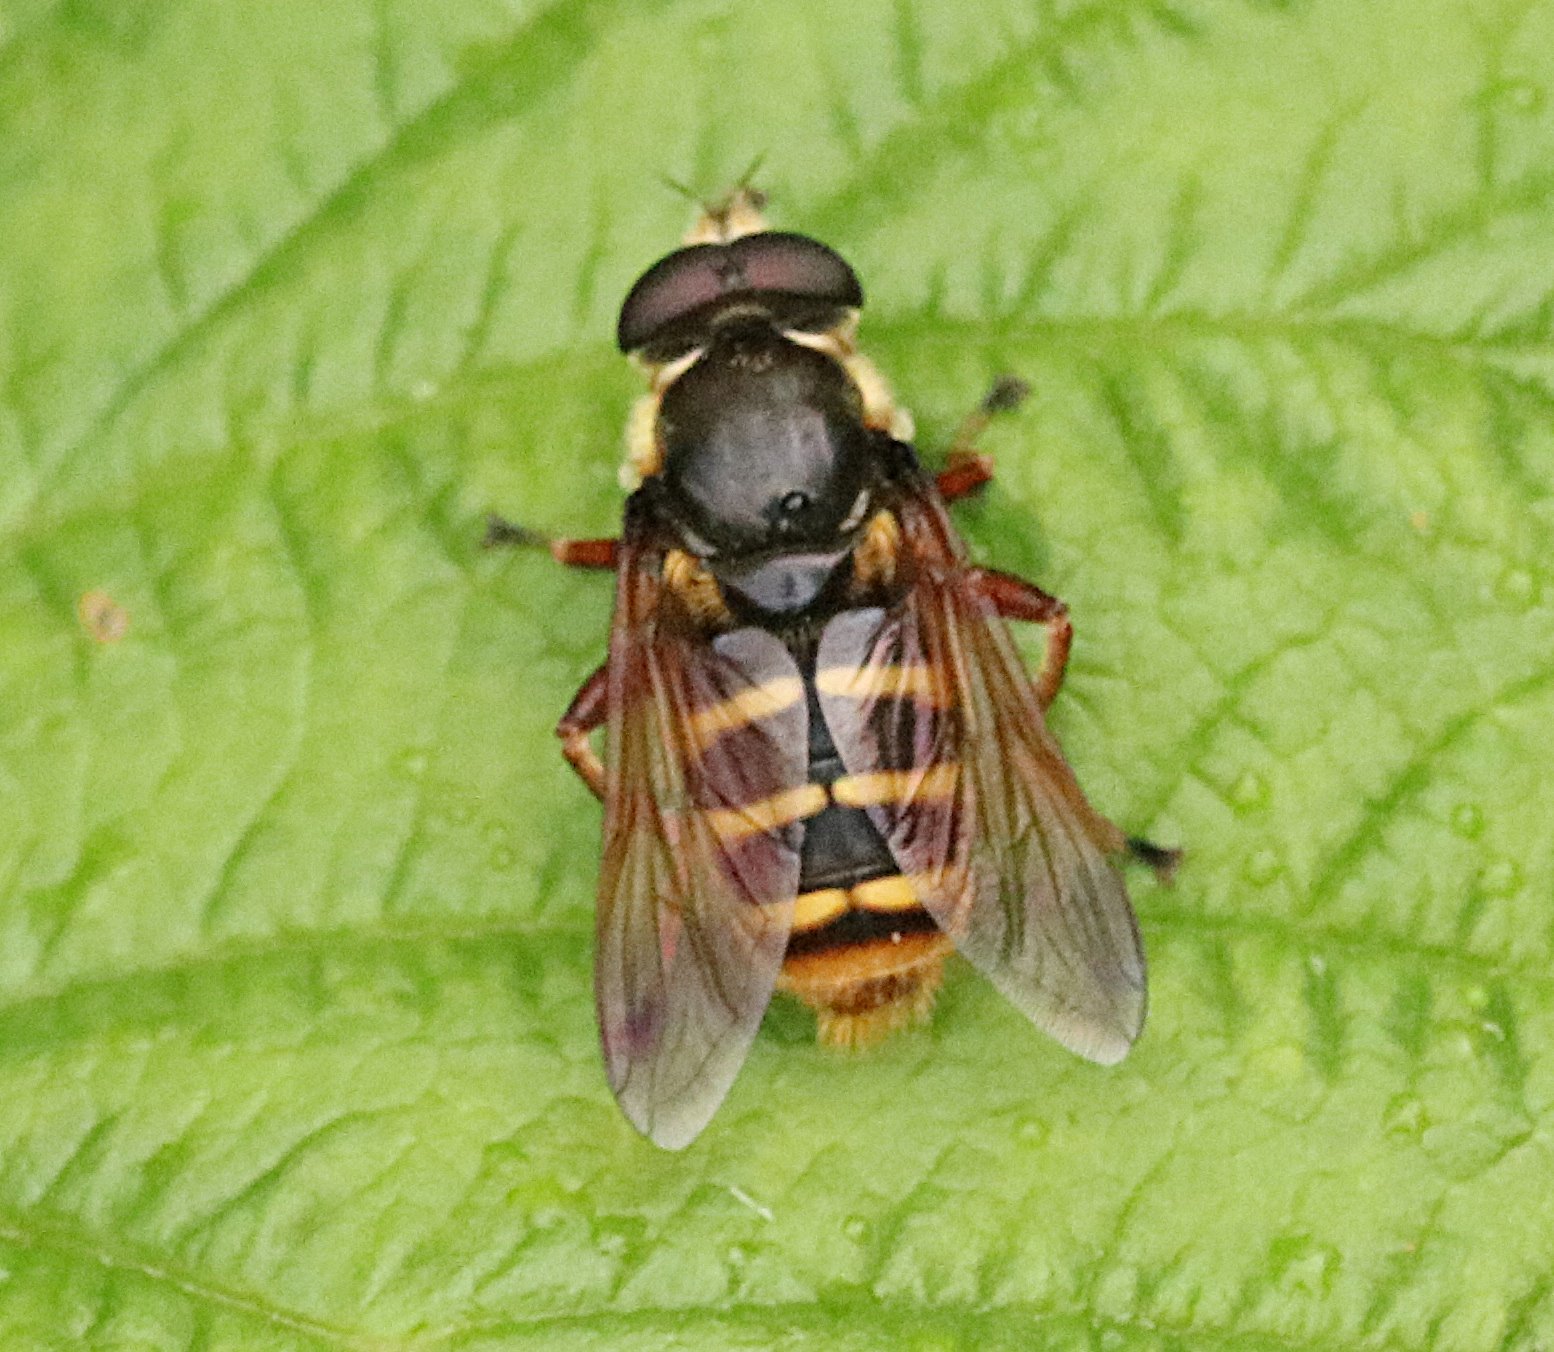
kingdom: Animalia
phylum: Arthropoda
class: Insecta
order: Diptera
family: Syrphidae
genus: Sericomyia
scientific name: Sericomyia silentis
